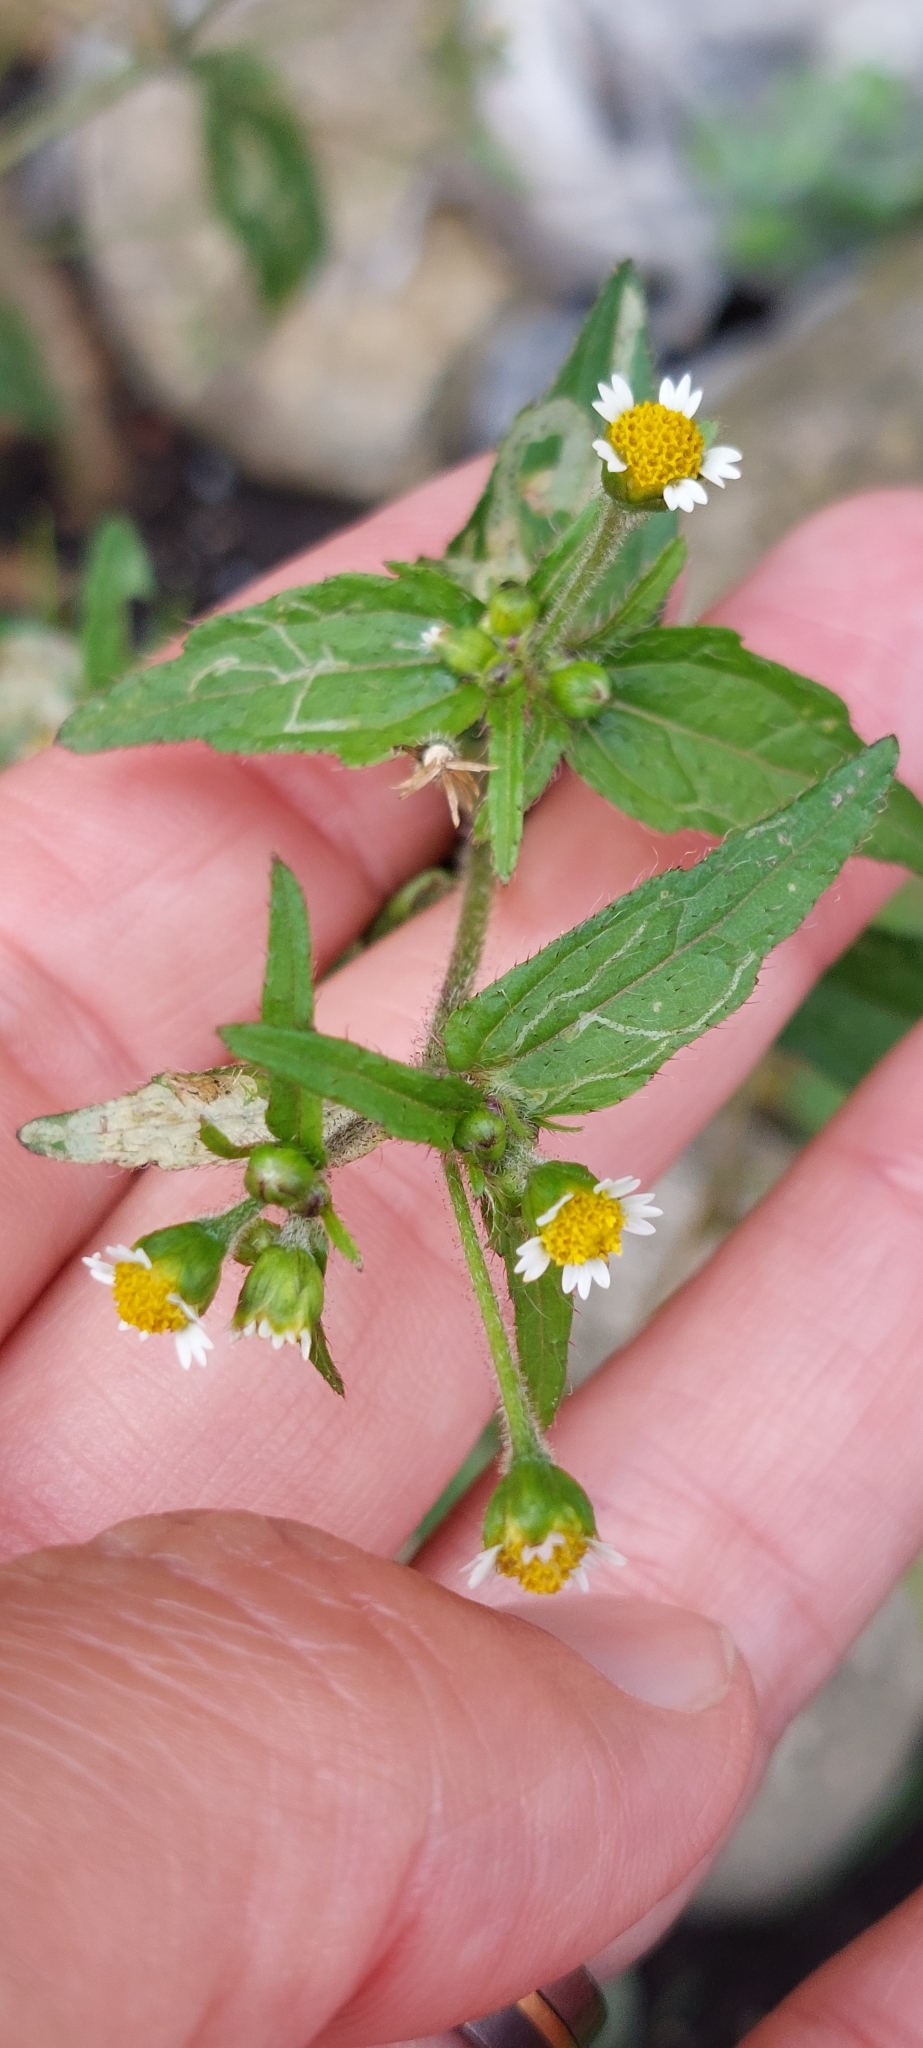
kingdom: Plantae
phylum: Tracheophyta
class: Magnoliopsida
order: Asterales
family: Asteraceae
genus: Galinsoga
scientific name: Galinsoga quadriradiata
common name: Shaggy soldier
